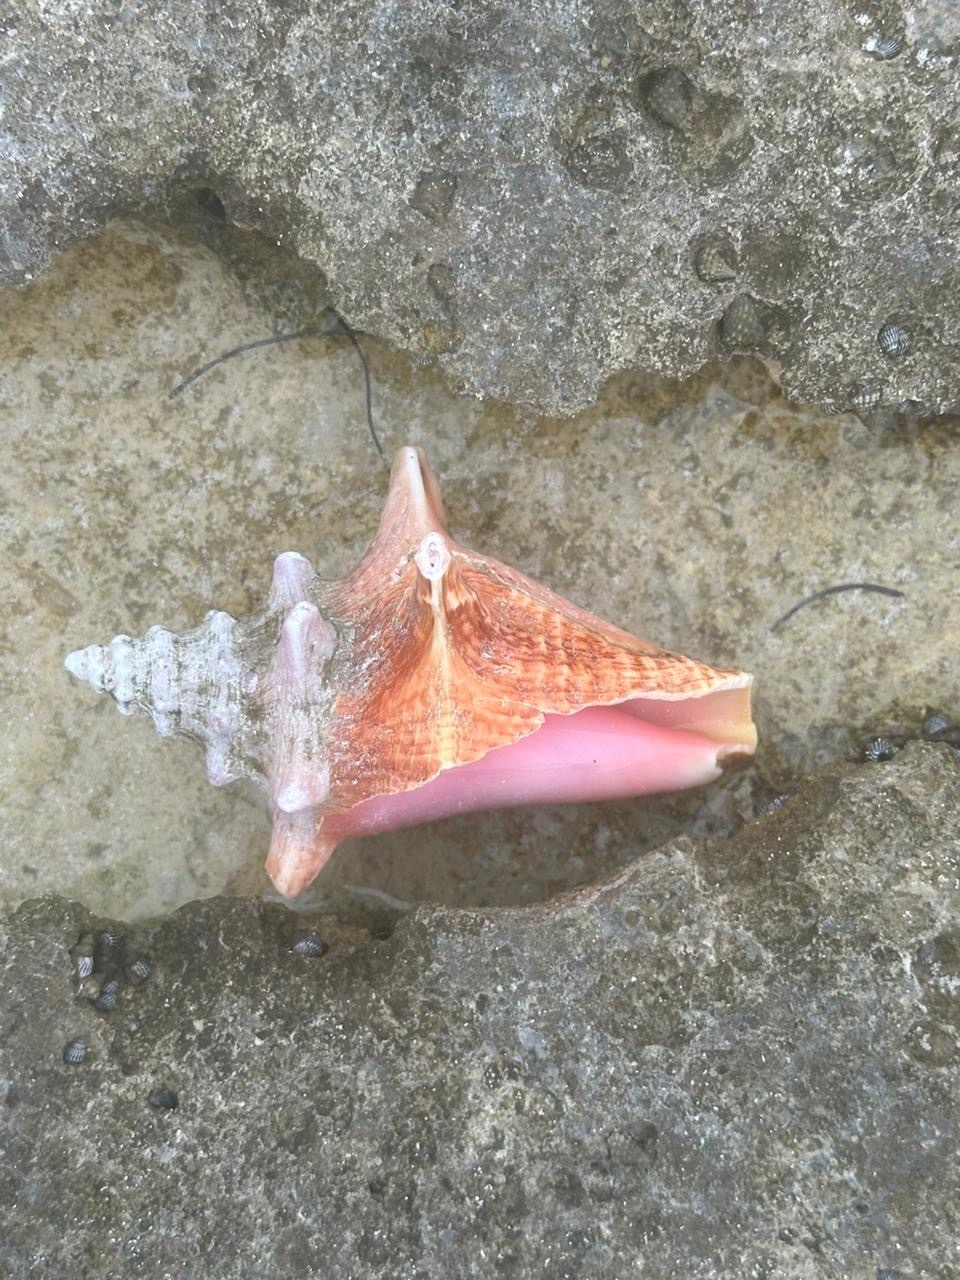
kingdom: Animalia
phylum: Mollusca
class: Gastropoda
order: Littorinimorpha
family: Strombidae
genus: Aliger
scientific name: Aliger gigas
